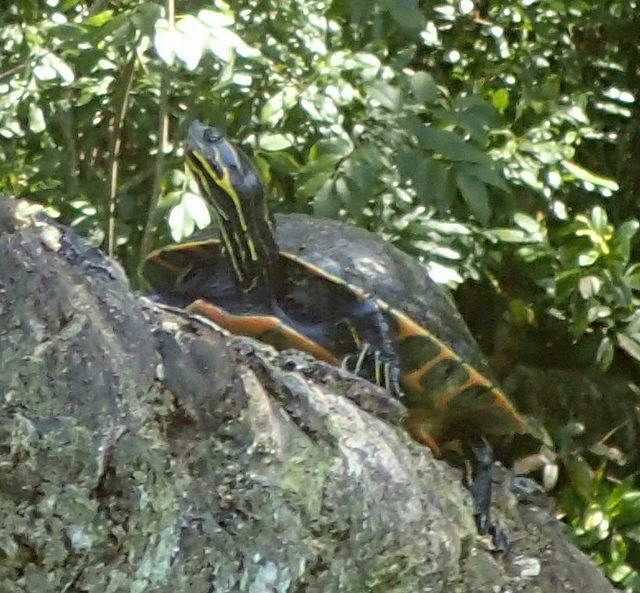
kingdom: Animalia
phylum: Chordata
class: Testudines
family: Emydidae
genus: Pseudemys
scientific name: Pseudemys concinna
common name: Eastern river cooter
